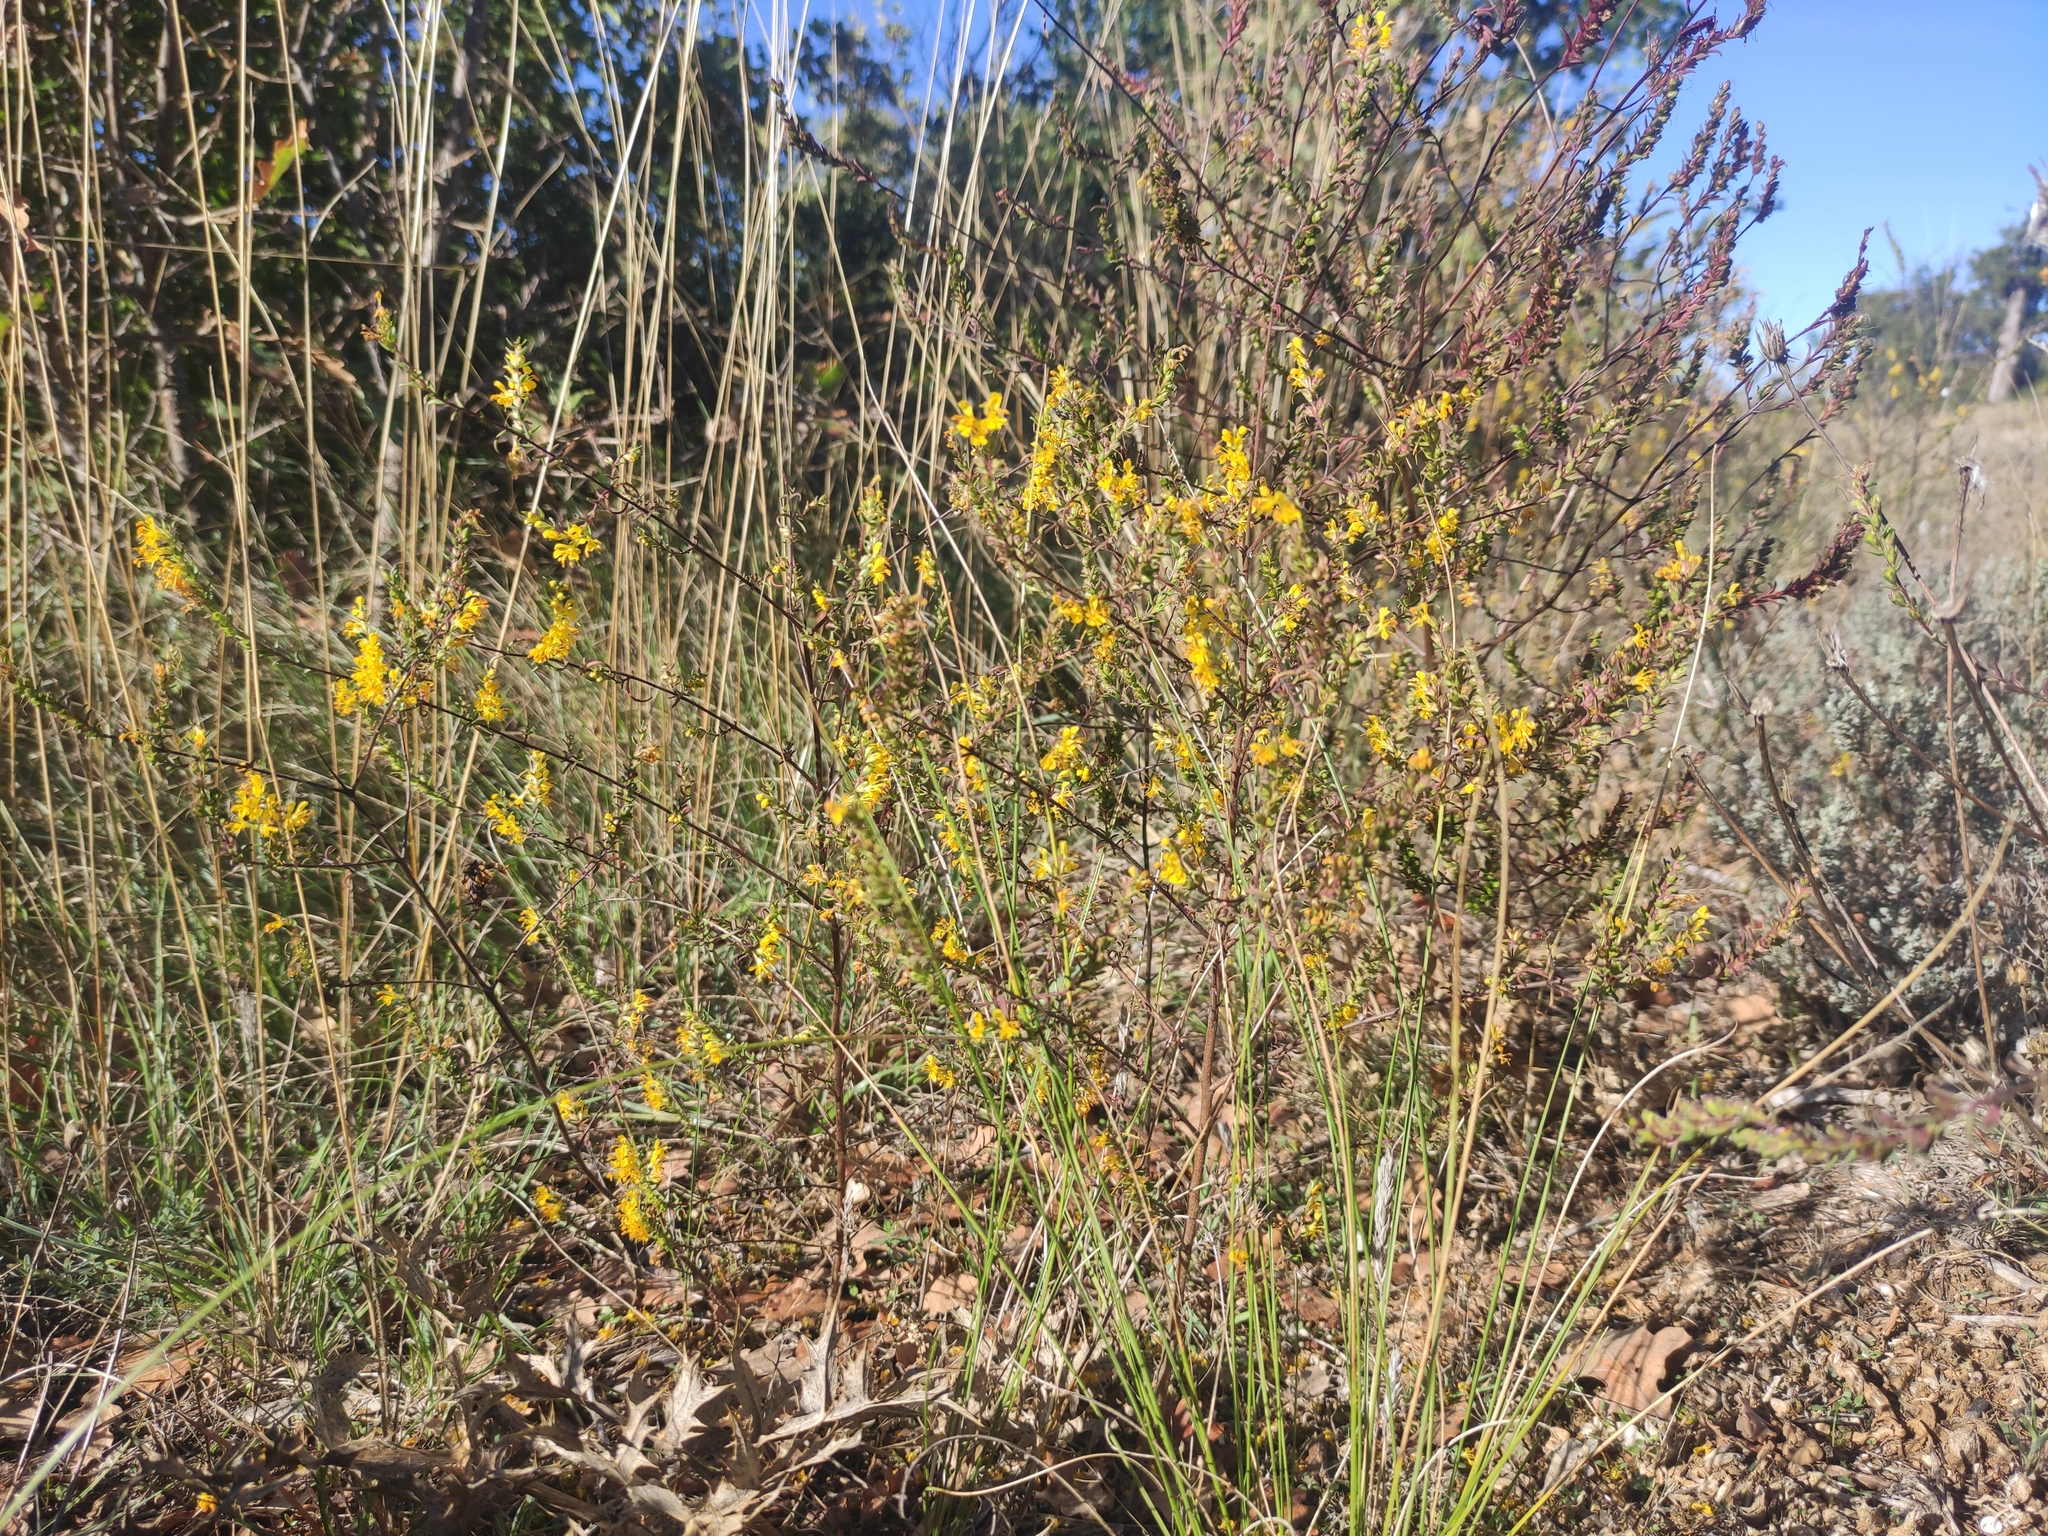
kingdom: Plantae
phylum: Tracheophyta
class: Magnoliopsida
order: Lamiales
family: Orobanchaceae
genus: Odontites
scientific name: Odontites luteus
